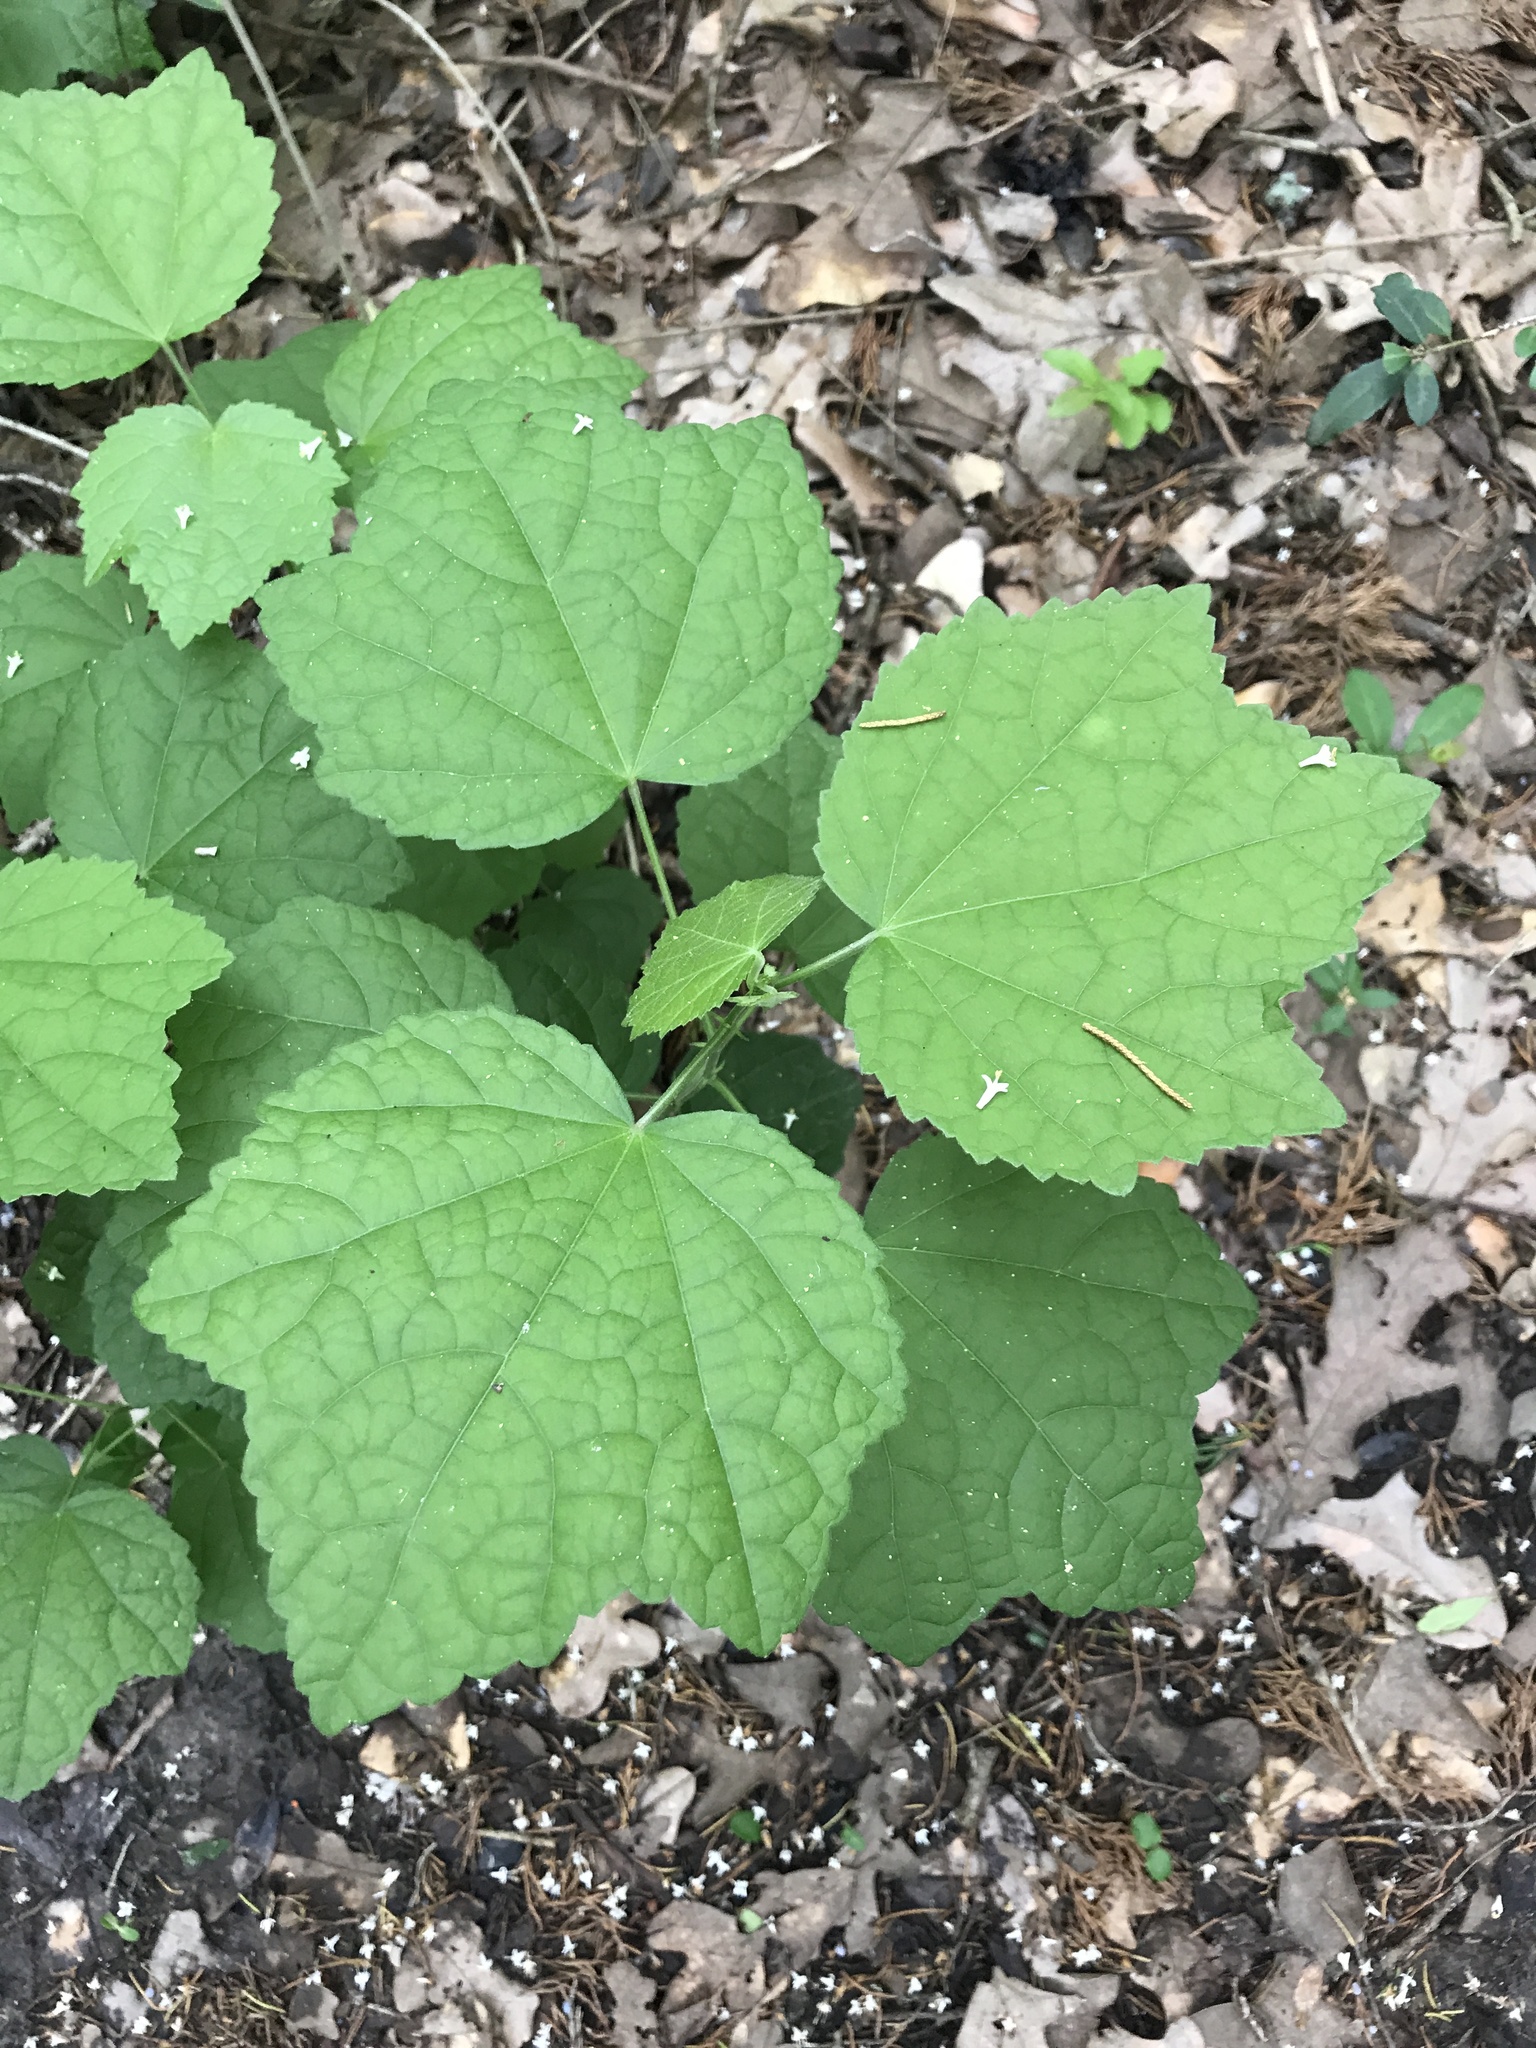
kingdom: Plantae
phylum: Tracheophyta
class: Magnoliopsida
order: Malvales
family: Malvaceae
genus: Malvaviscus
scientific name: Malvaviscus arboreus
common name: Wax mallow
